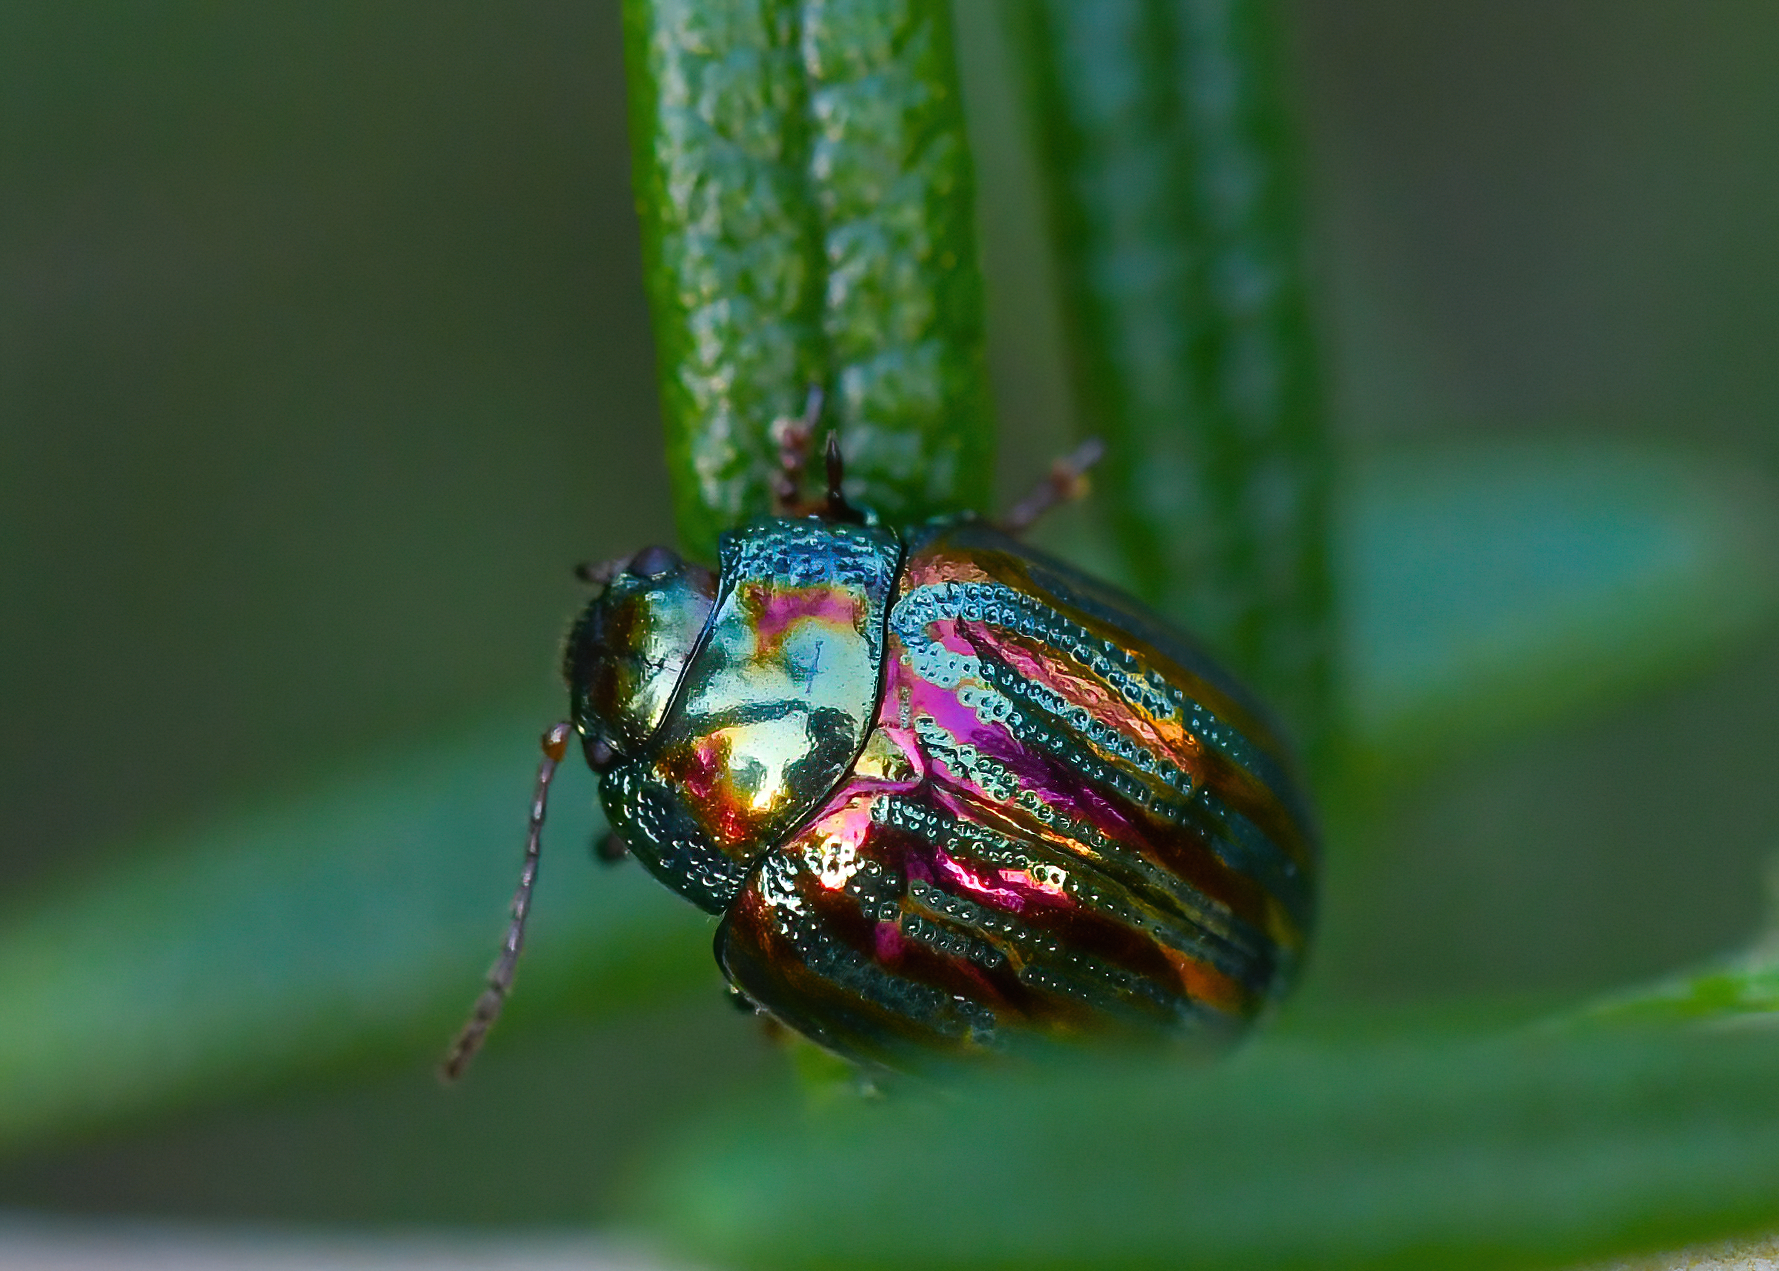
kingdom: Animalia
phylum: Arthropoda
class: Insecta
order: Coleoptera
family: Chrysomelidae
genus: Chrysolina
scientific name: Chrysolina americana
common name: Rosemary beetle
